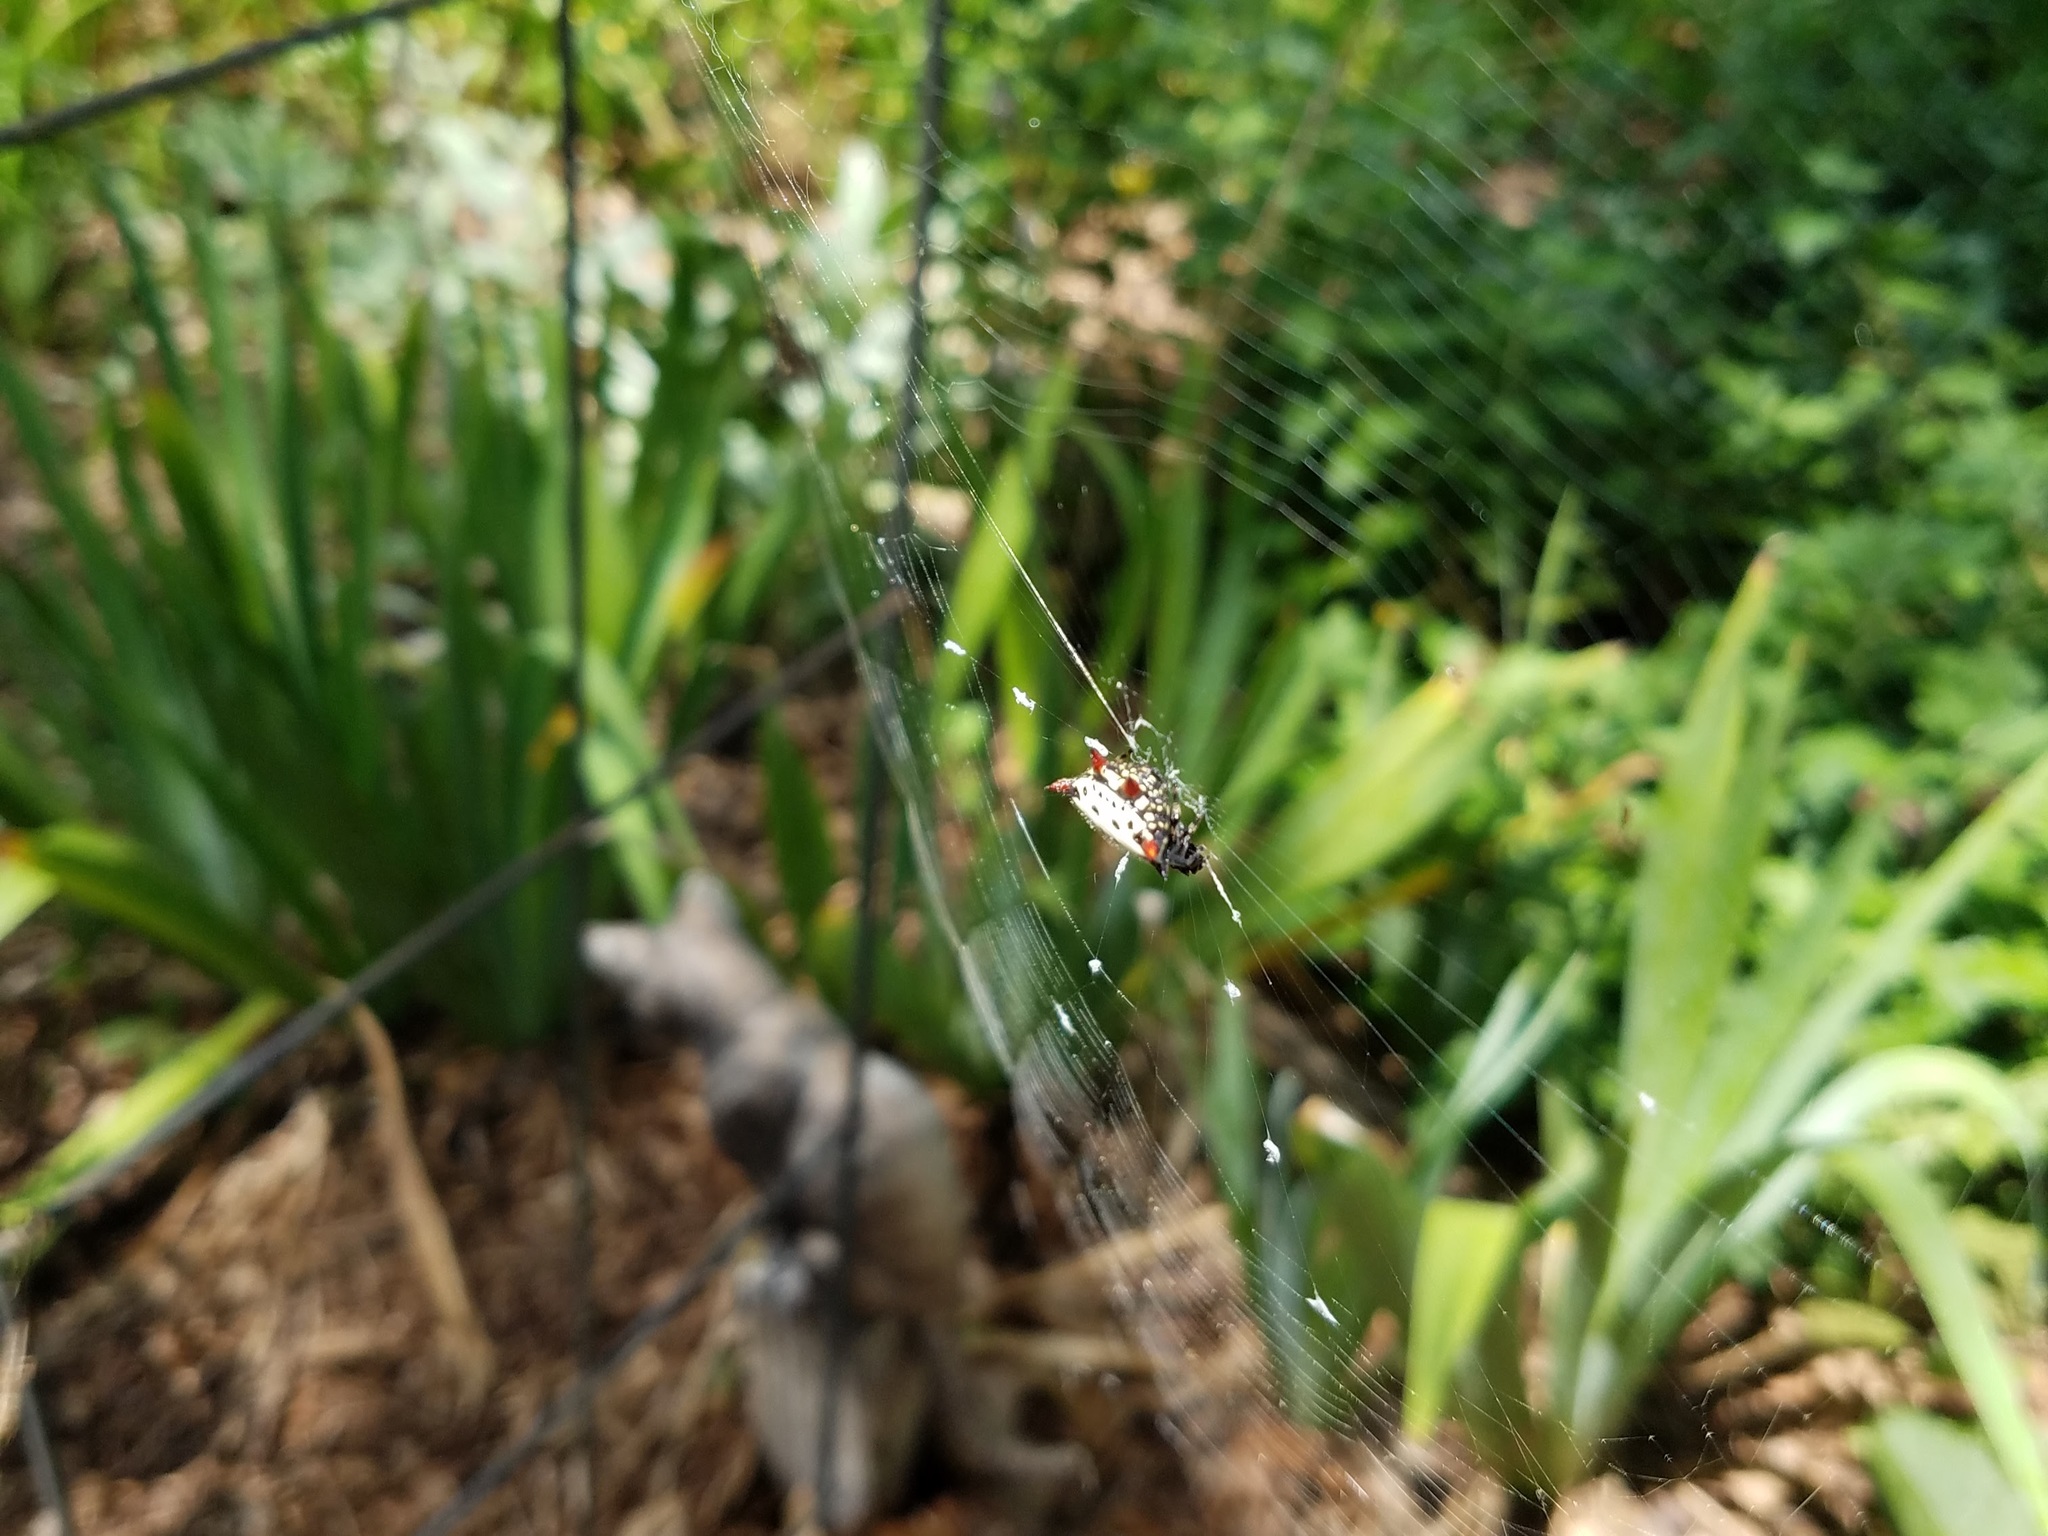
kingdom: Animalia
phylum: Arthropoda
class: Arachnida
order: Araneae
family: Araneidae
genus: Gasteracantha
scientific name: Gasteracantha cancriformis
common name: Orb weavers
